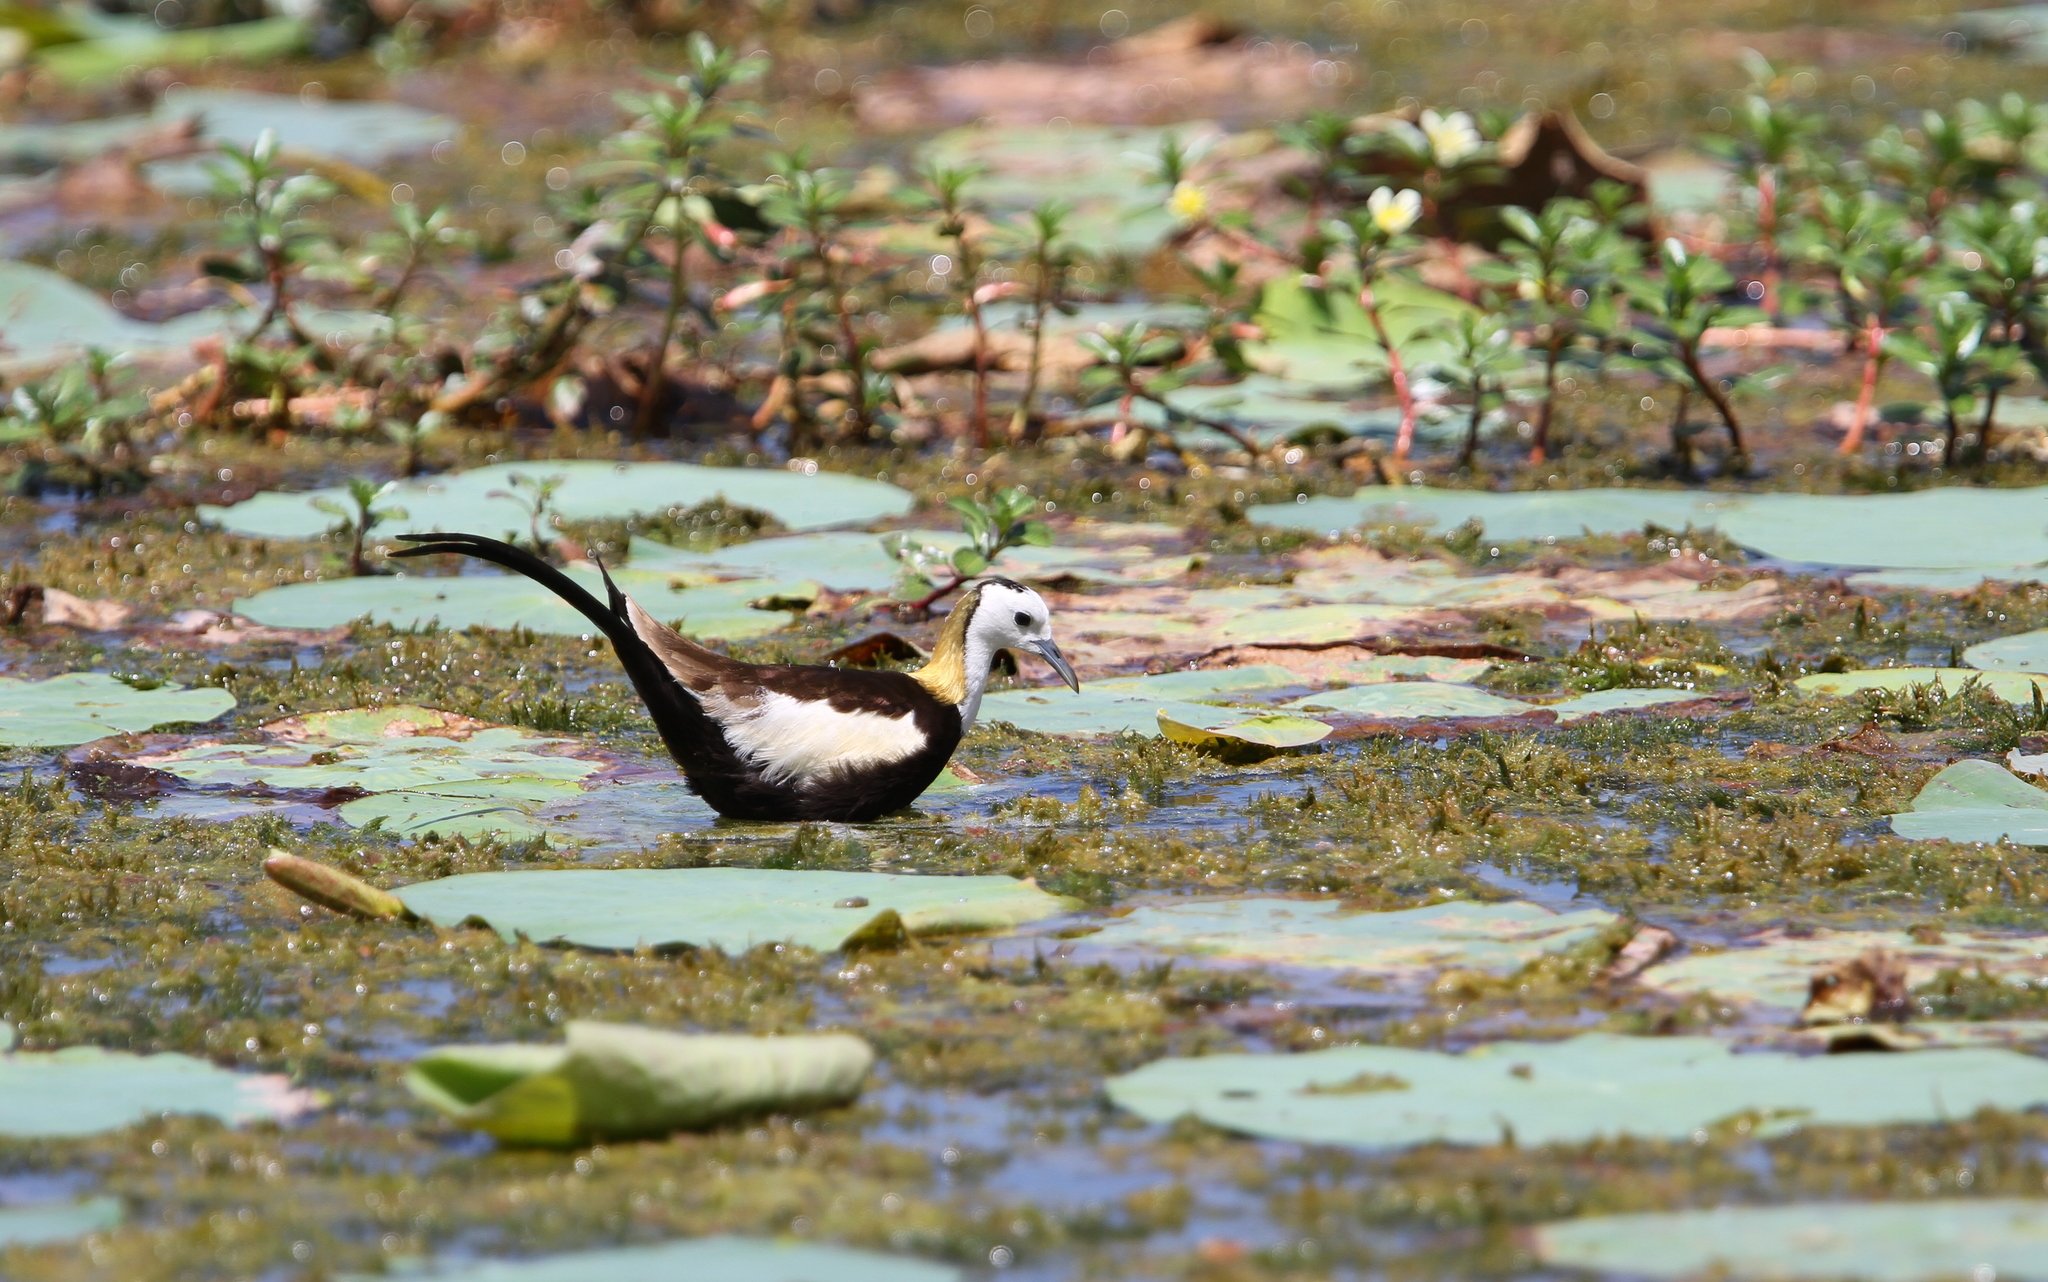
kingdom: Animalia
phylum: Chordata
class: Aves
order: Charadriiformes
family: Jacanidae
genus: Hydrophasianus
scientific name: Hydrophasianus chirurgus
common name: Pheasant-tailed jacana
